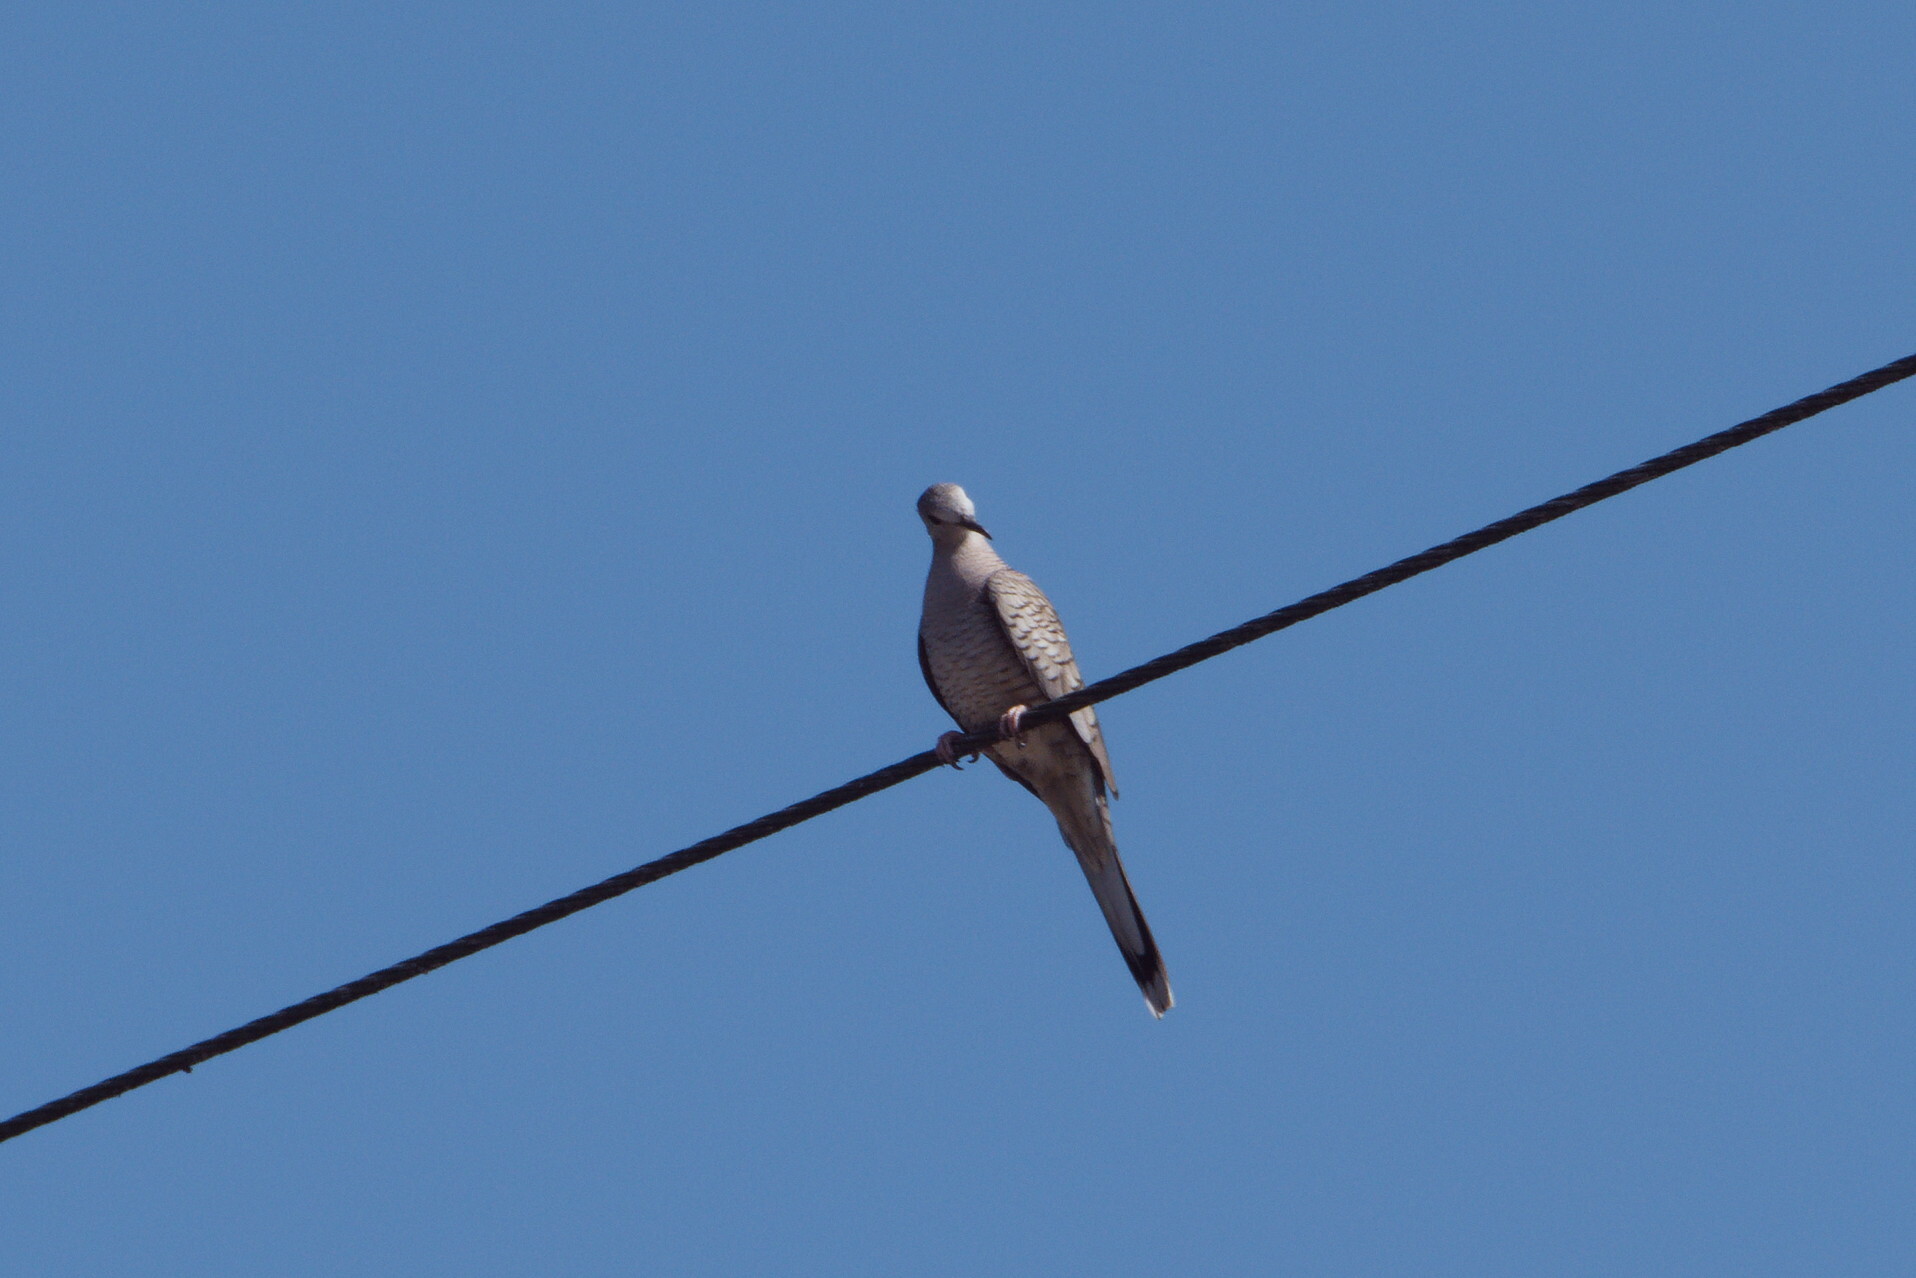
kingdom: Animalia
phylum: Chordata
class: Aves
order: Columbiformes
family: Columbidae
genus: Columbina
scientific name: Columbina inca
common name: Inca dove
